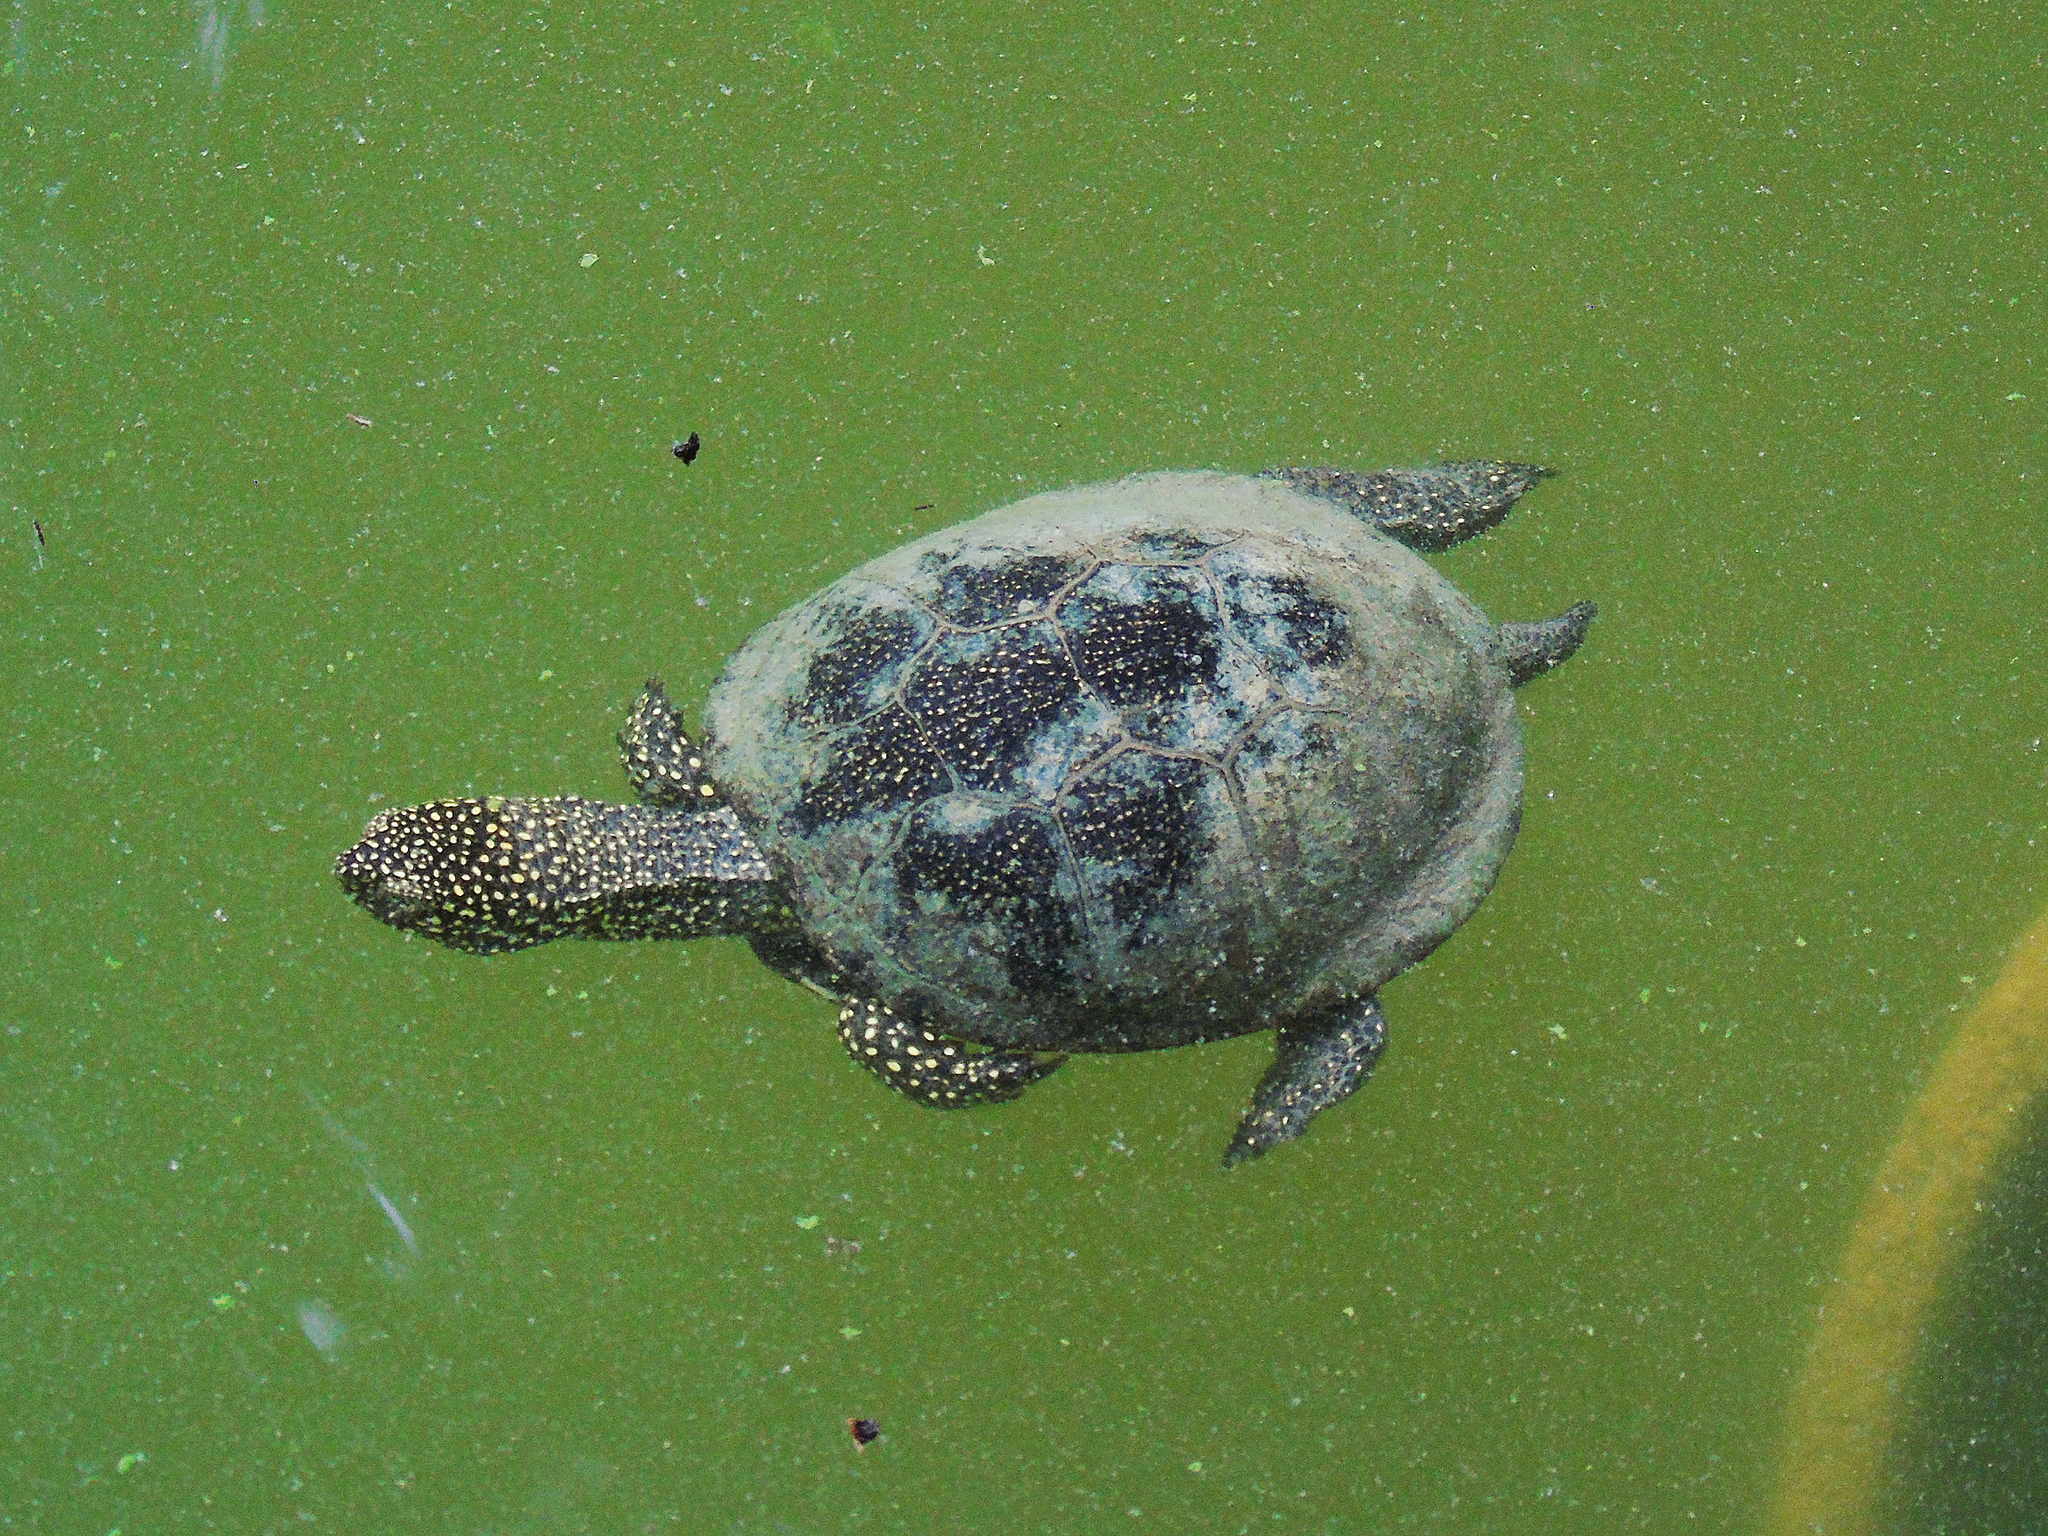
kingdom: Animalia
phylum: Chordata
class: Testudines
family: Emydidae
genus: Emys
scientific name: Emys orbicularis
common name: European pond turtle
